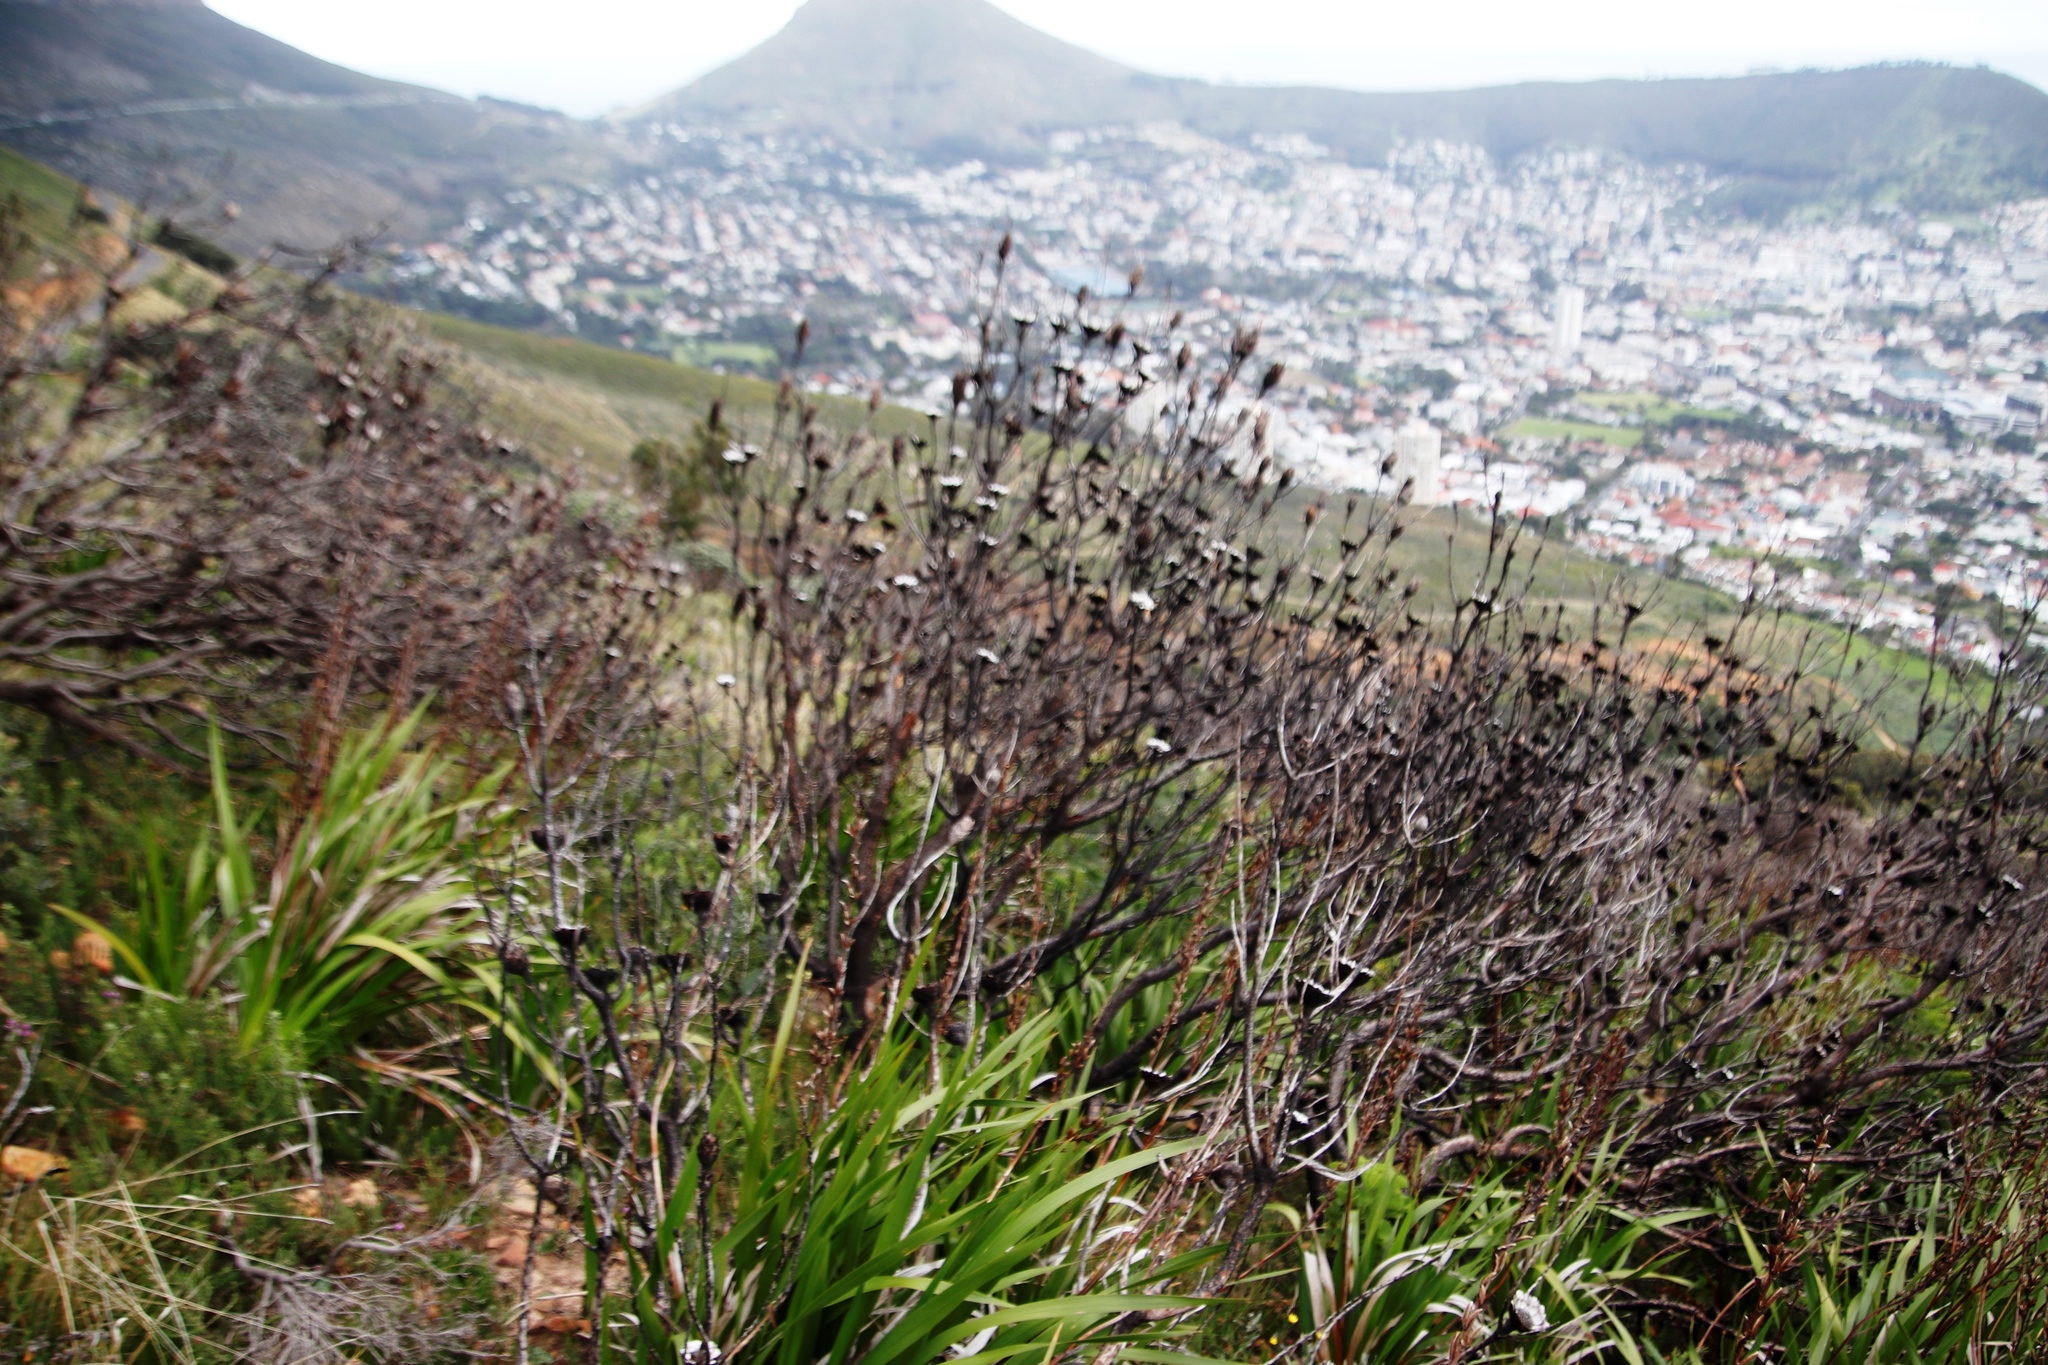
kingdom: Plantae
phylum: Tracheophyta
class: Magnoliopsida
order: Proteales
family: Proteaceae
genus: Protea
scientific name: Protea repens
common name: Sugarbush
